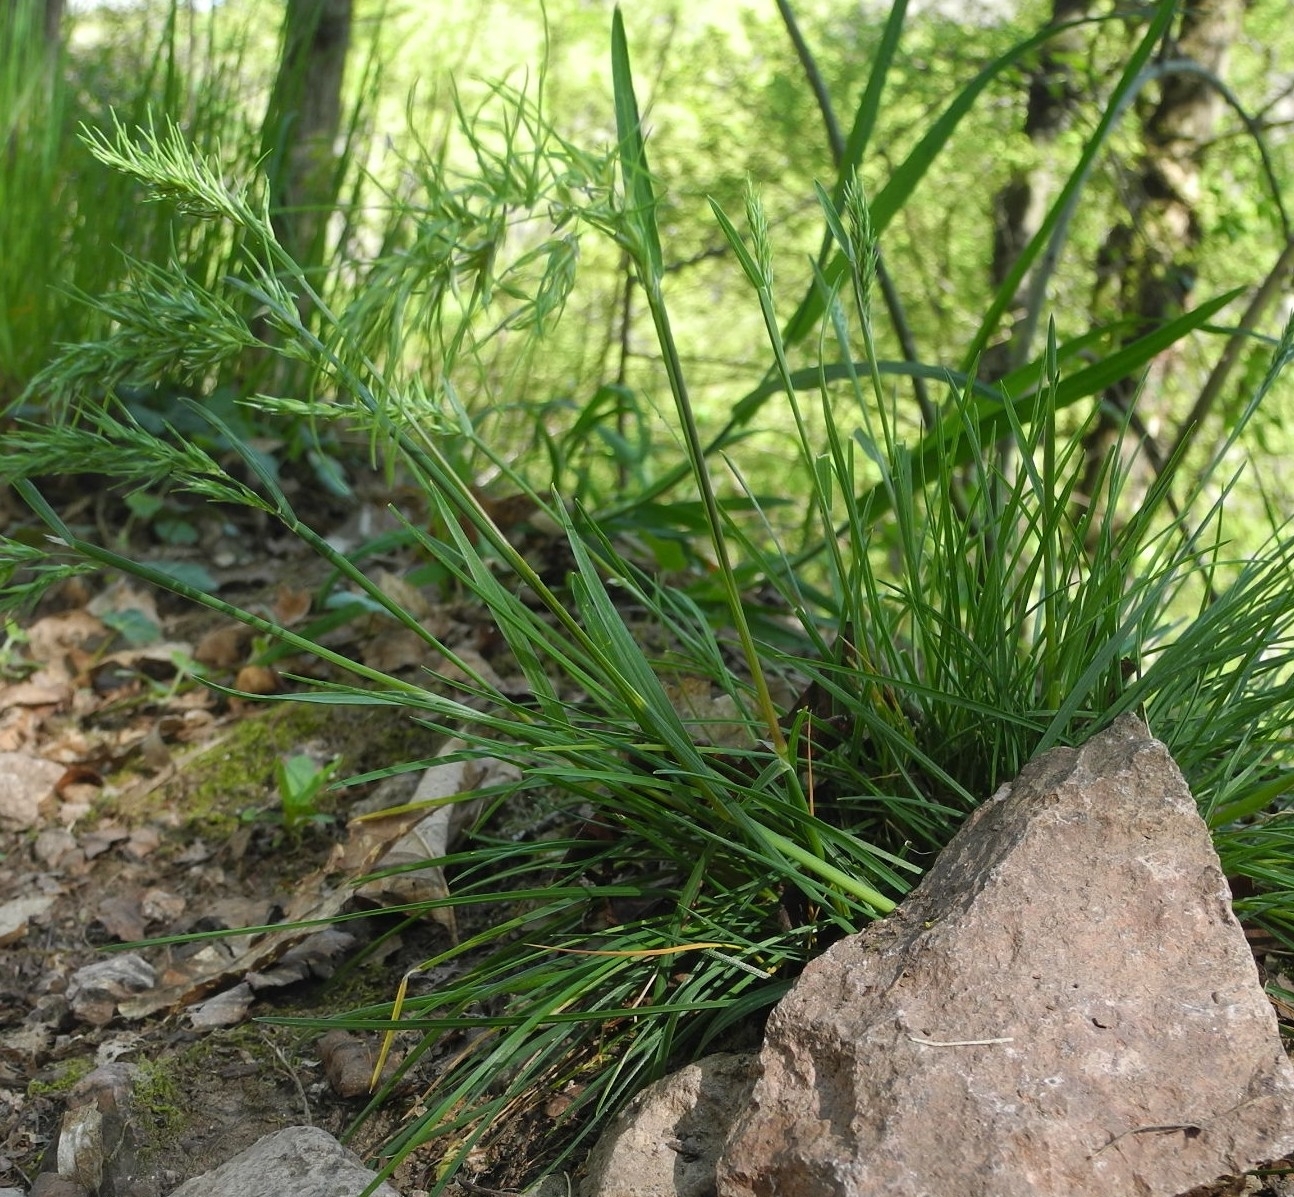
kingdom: Plantae
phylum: Tracheophyta
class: Liliopsida
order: Poales
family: Poaceae
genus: Poa
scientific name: Poa bulbosa
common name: Bulbous bluegrass
